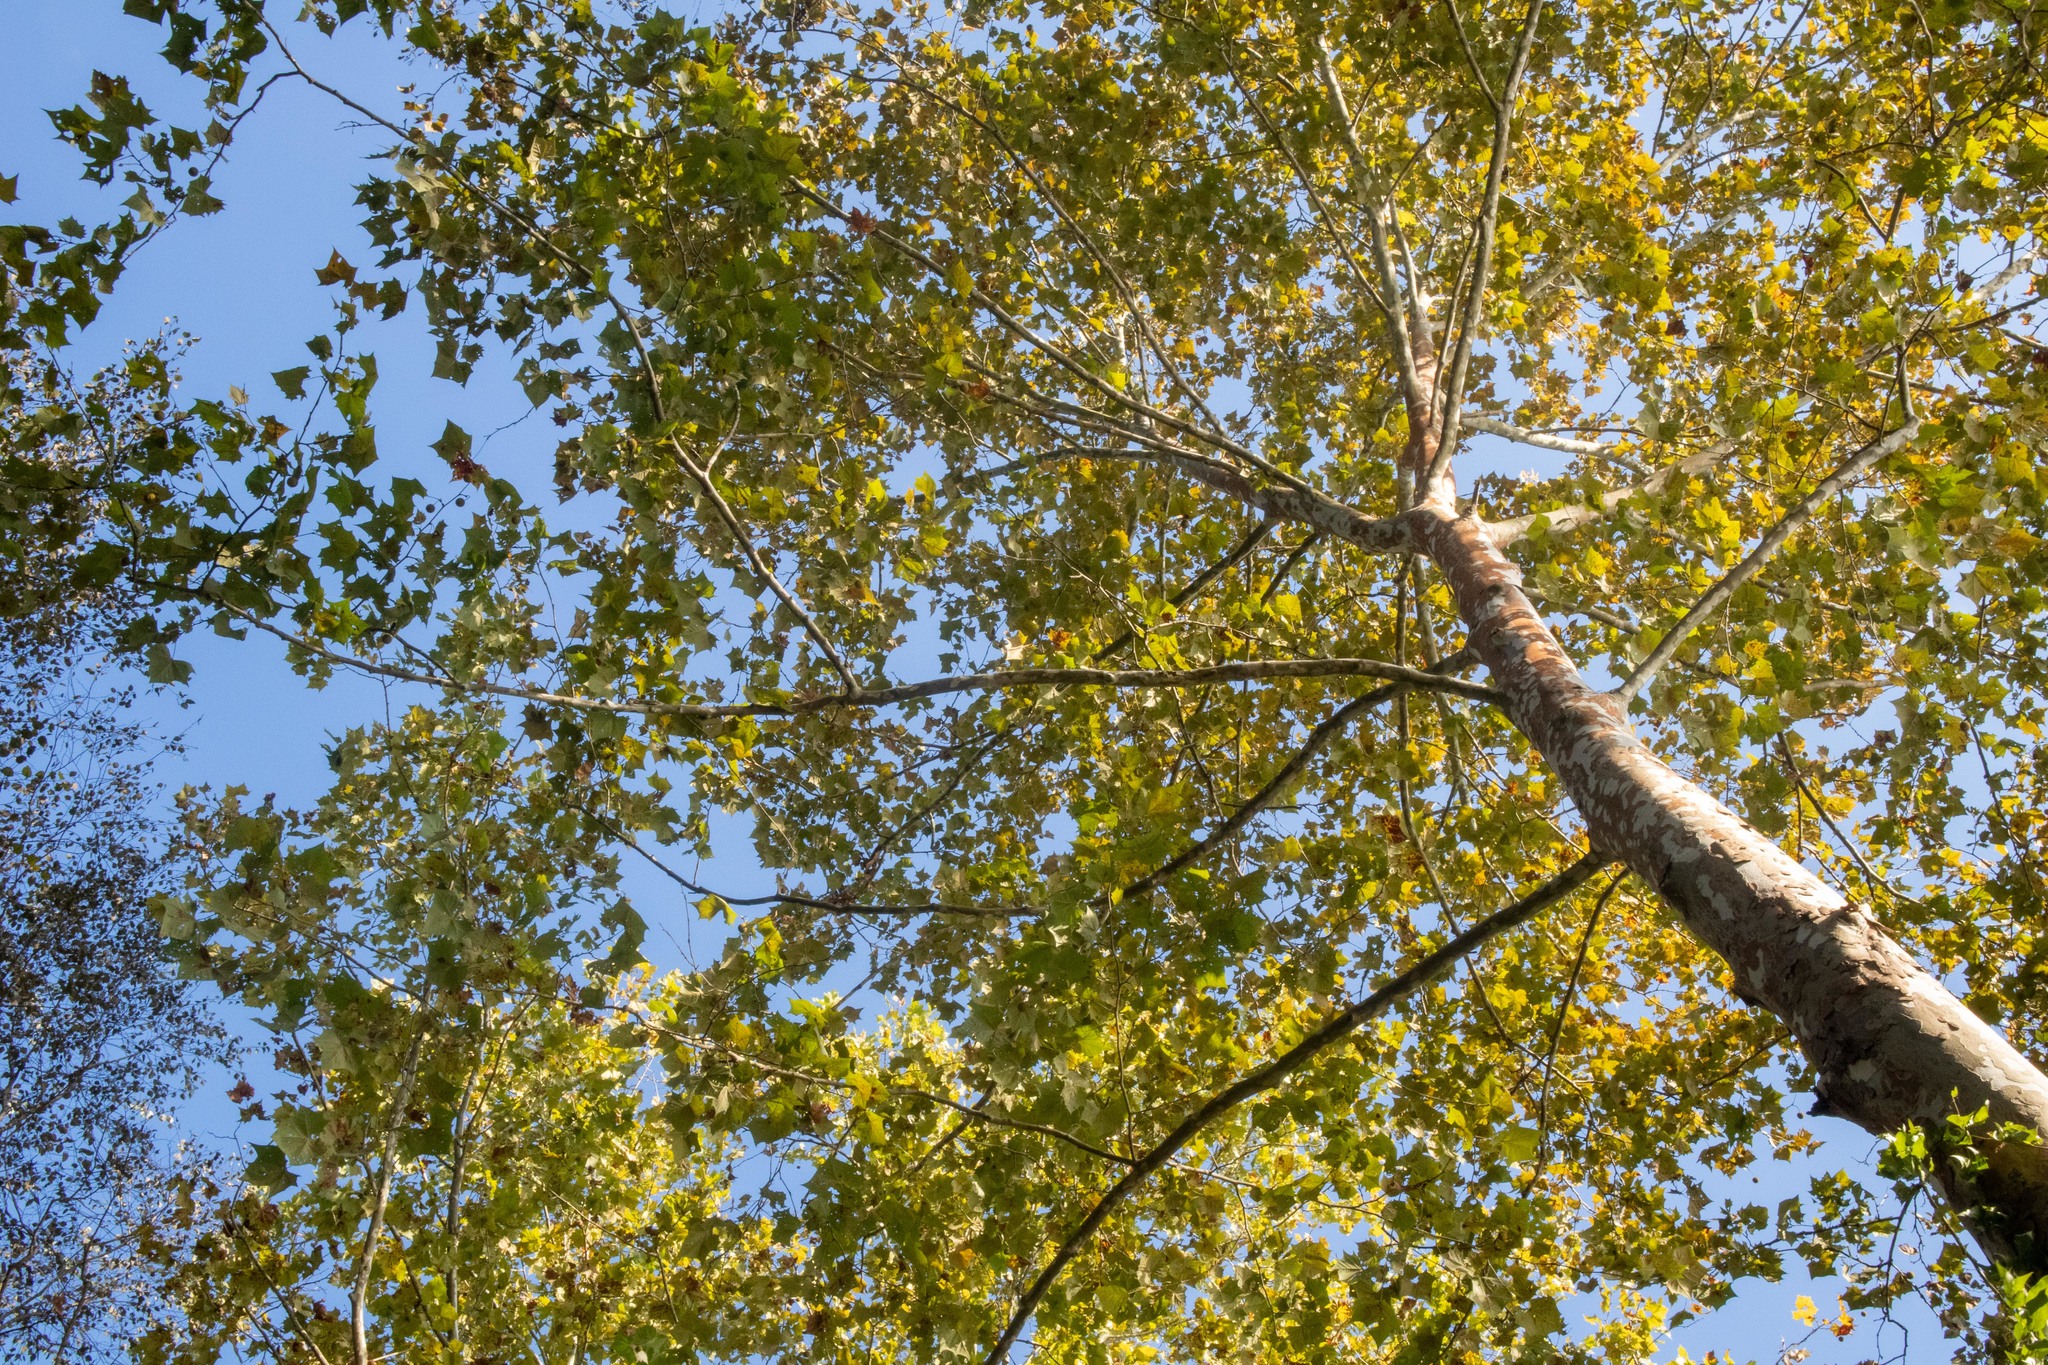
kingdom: Plantae
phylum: Tracheophyta
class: Magnoliopsida
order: Proteales
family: Platanaceae
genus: Platanus
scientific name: Platanus occidentalis
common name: American sycamore
